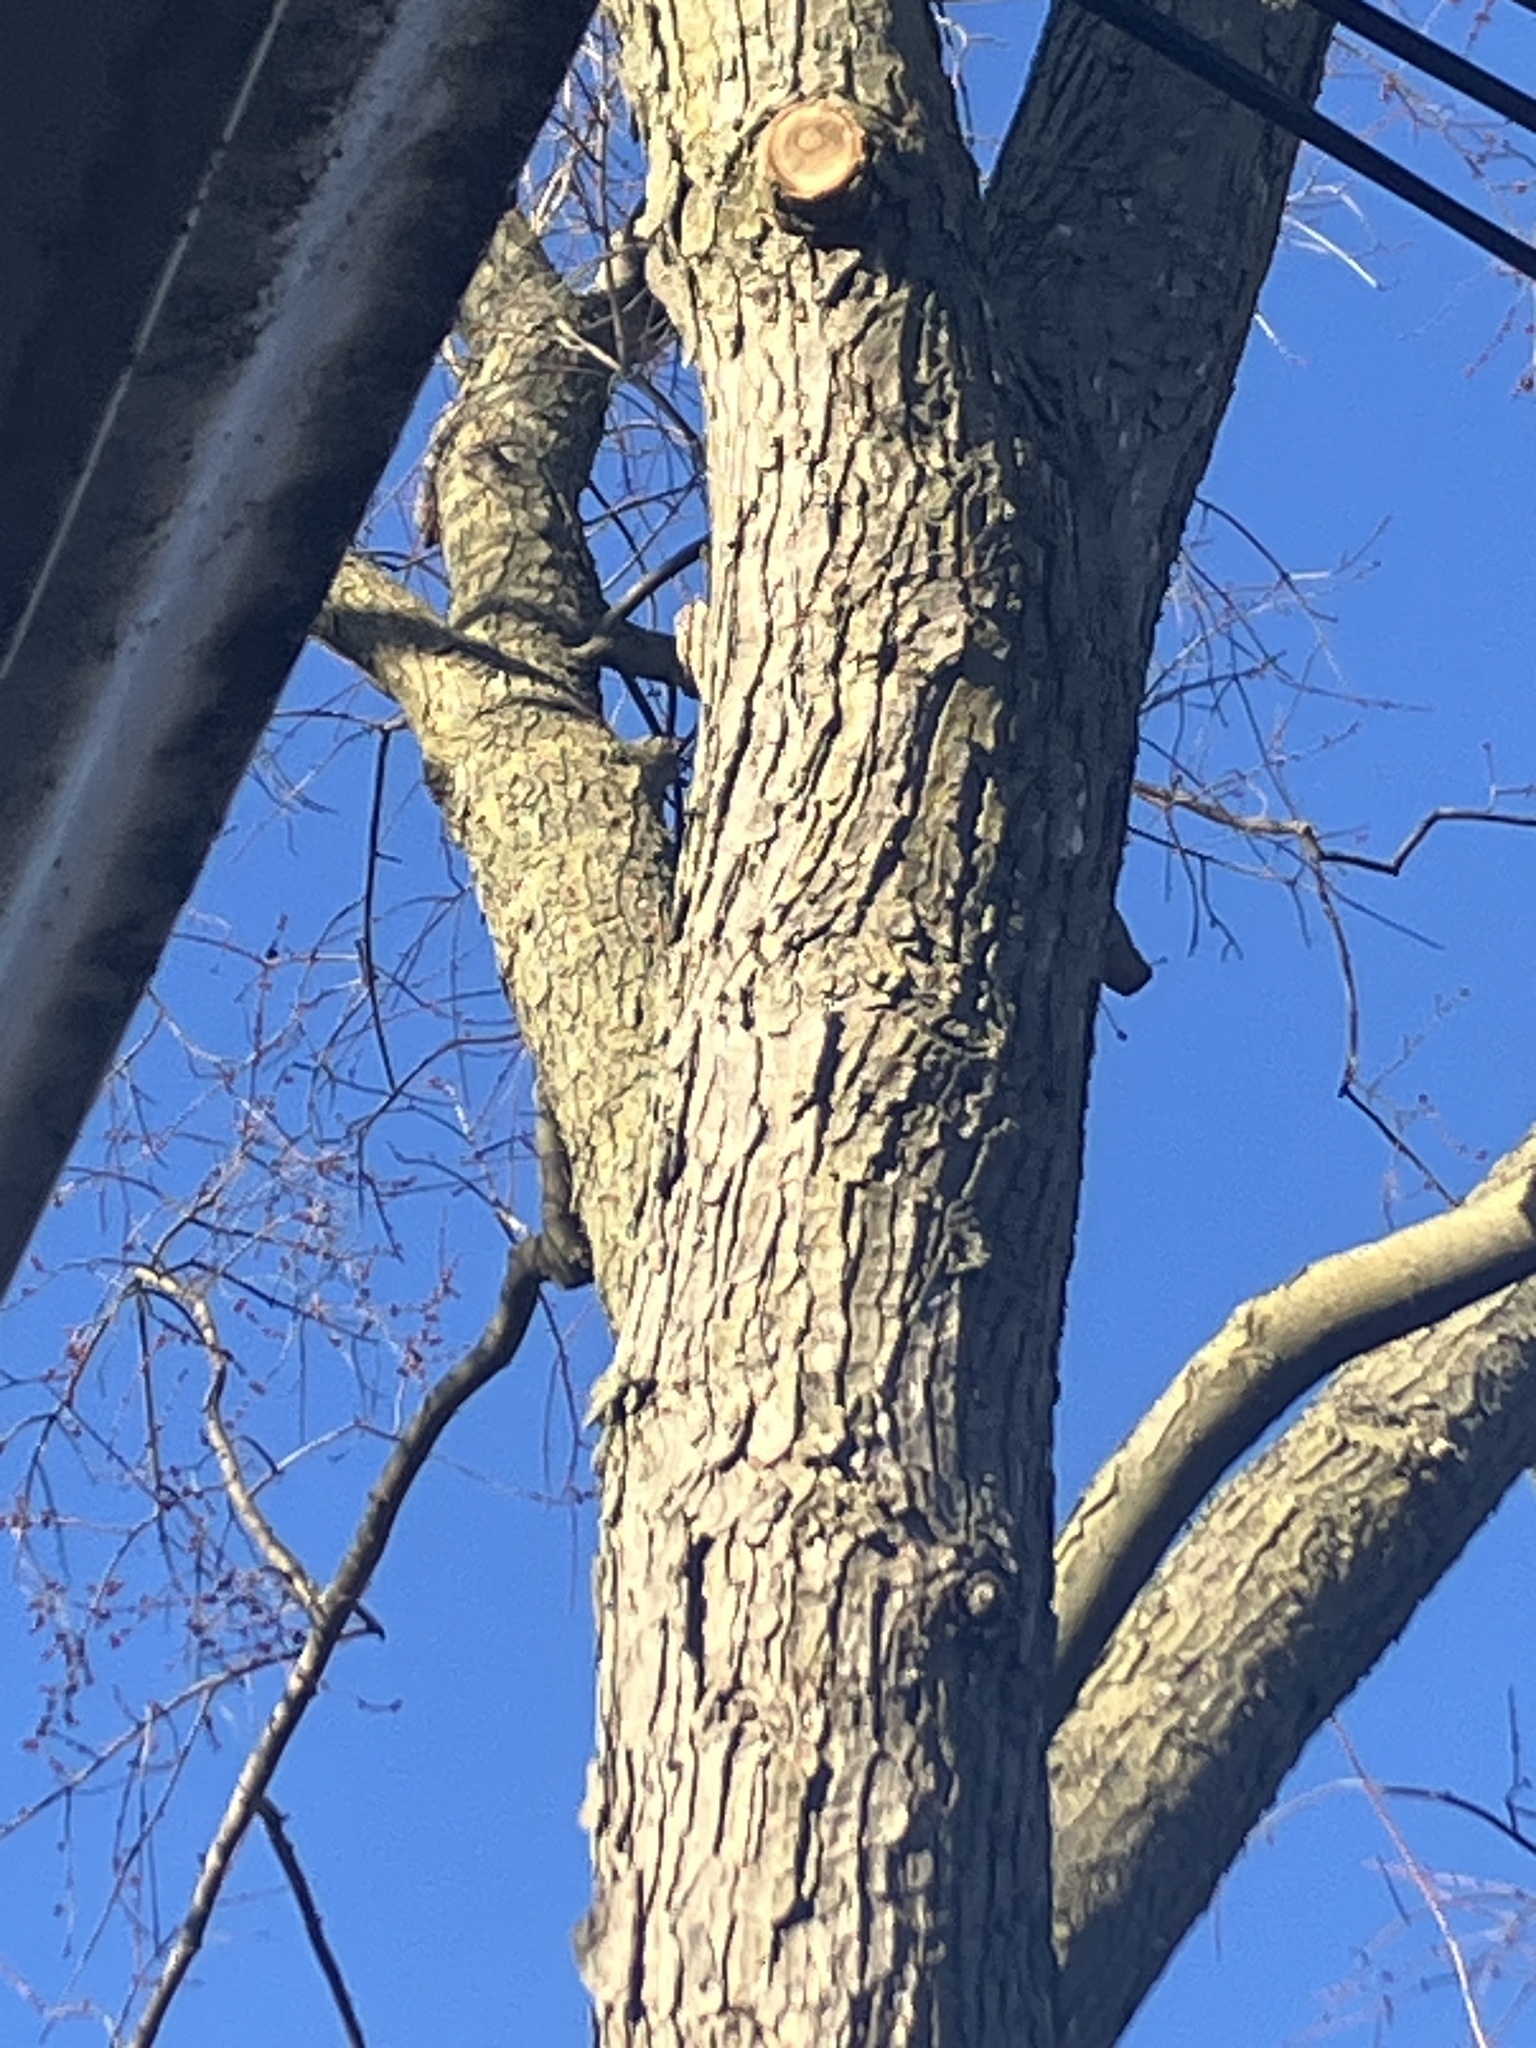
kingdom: Animalia
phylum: Chordata
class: Aves
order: Passeriformes
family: Certhiidae
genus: Certhia
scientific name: Certhia americana
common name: Brown creeper
